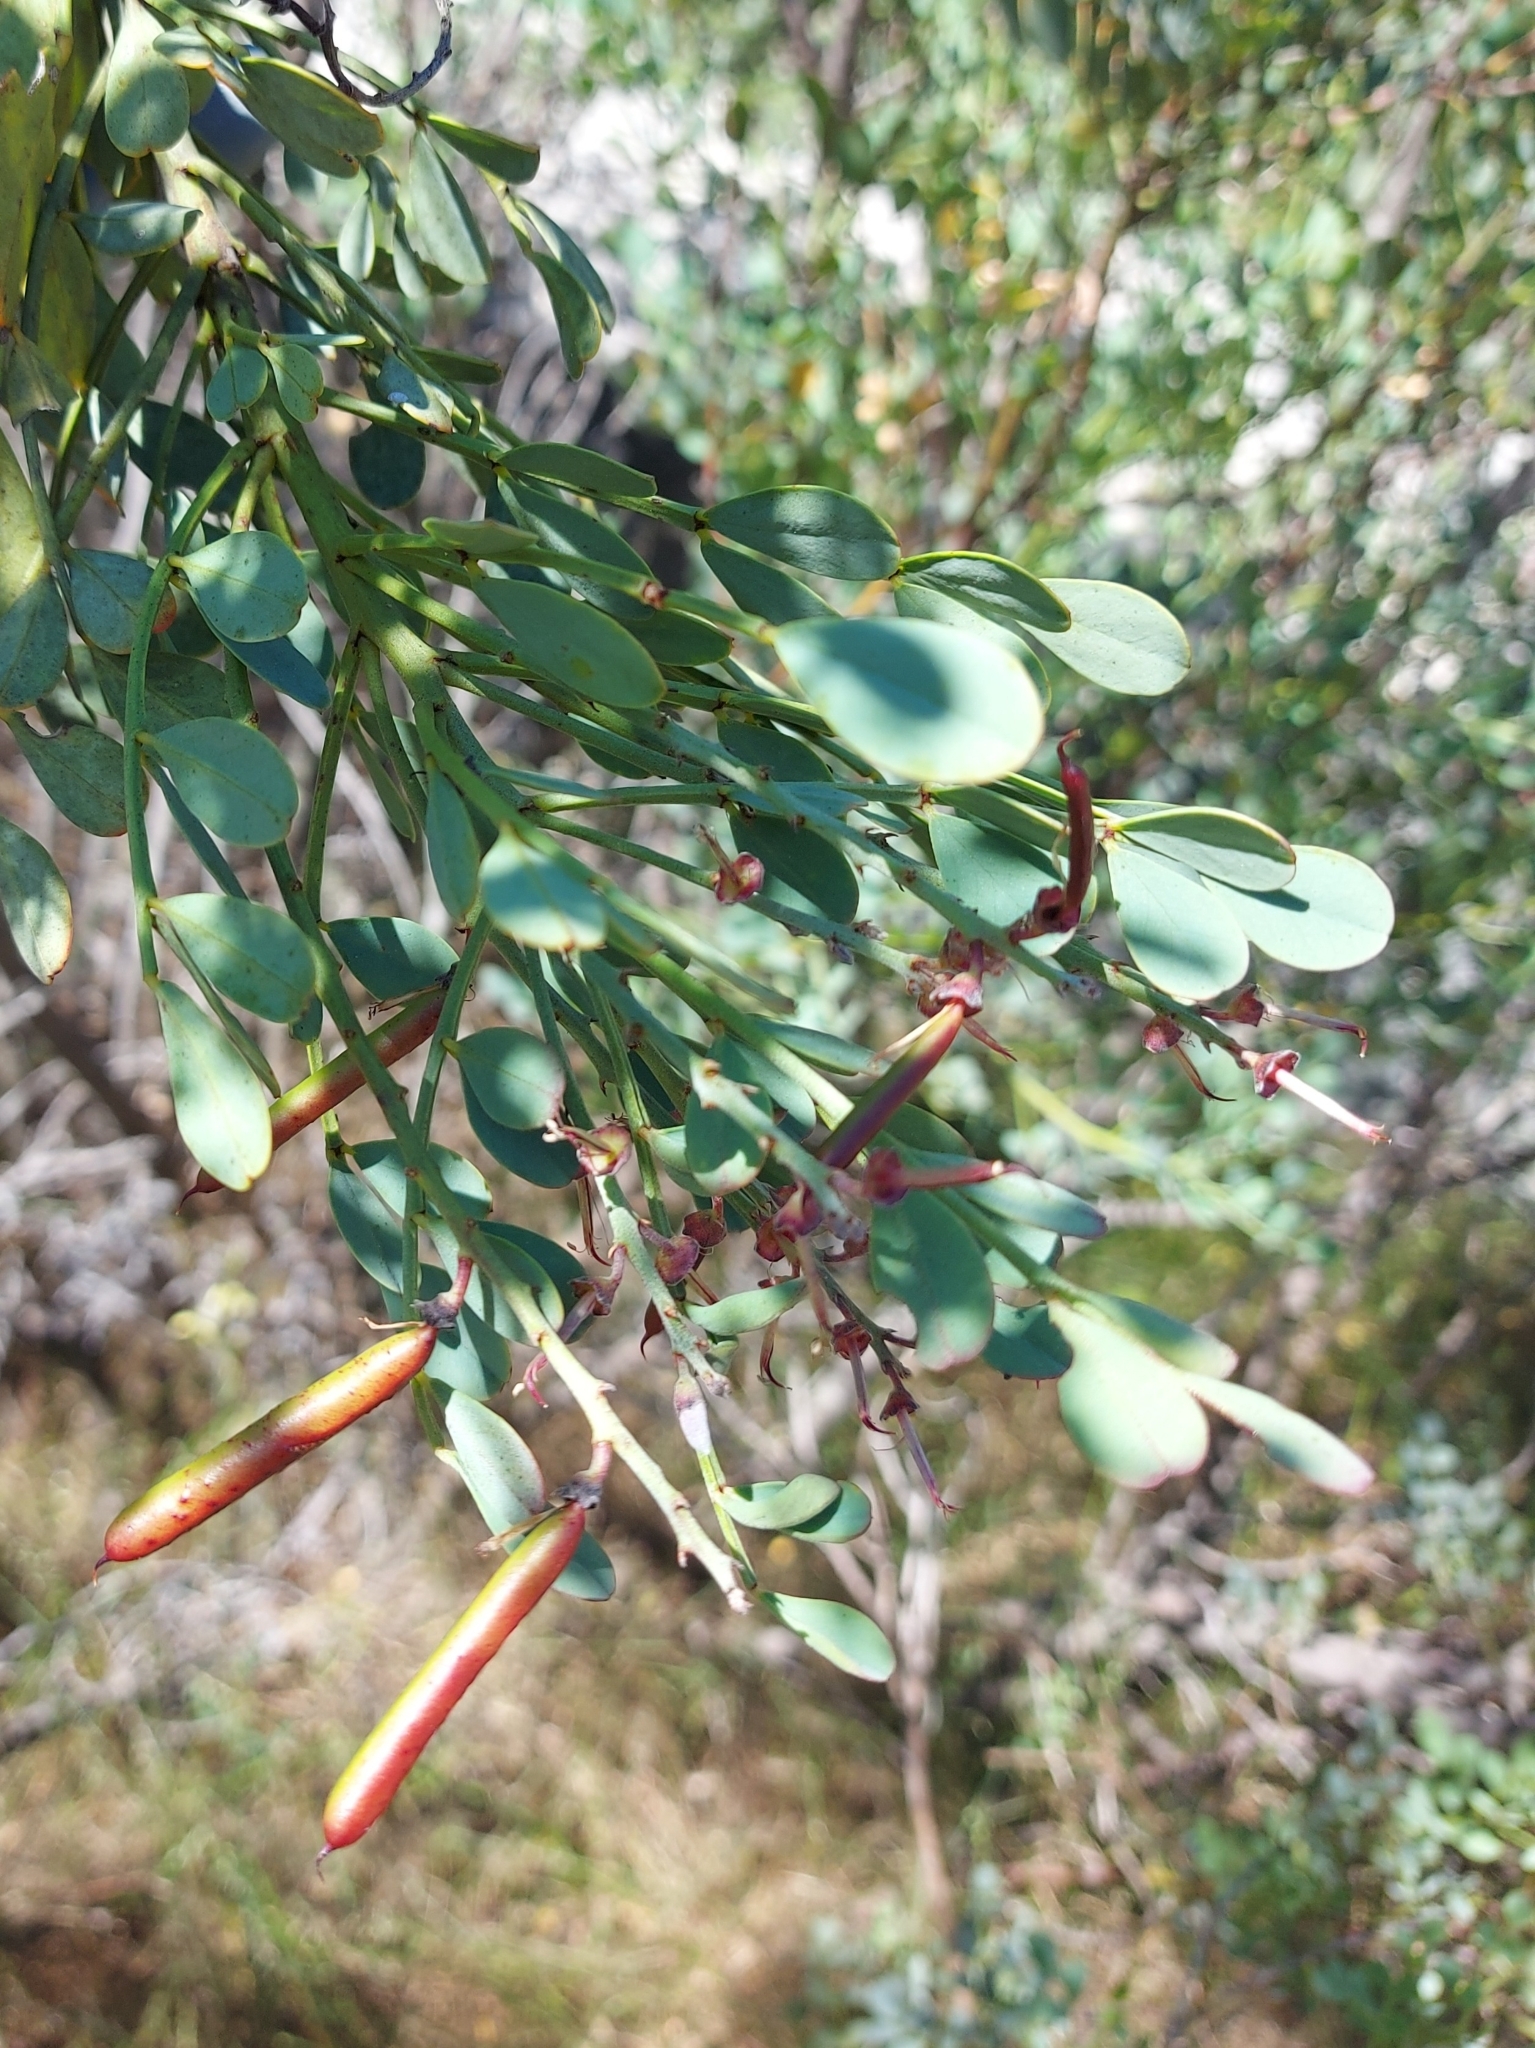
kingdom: Plantae
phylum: Tracheophyta
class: Magnoliopsida
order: Fabales
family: Fabaceae
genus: Indigofera
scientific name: Indigofera frutescens
